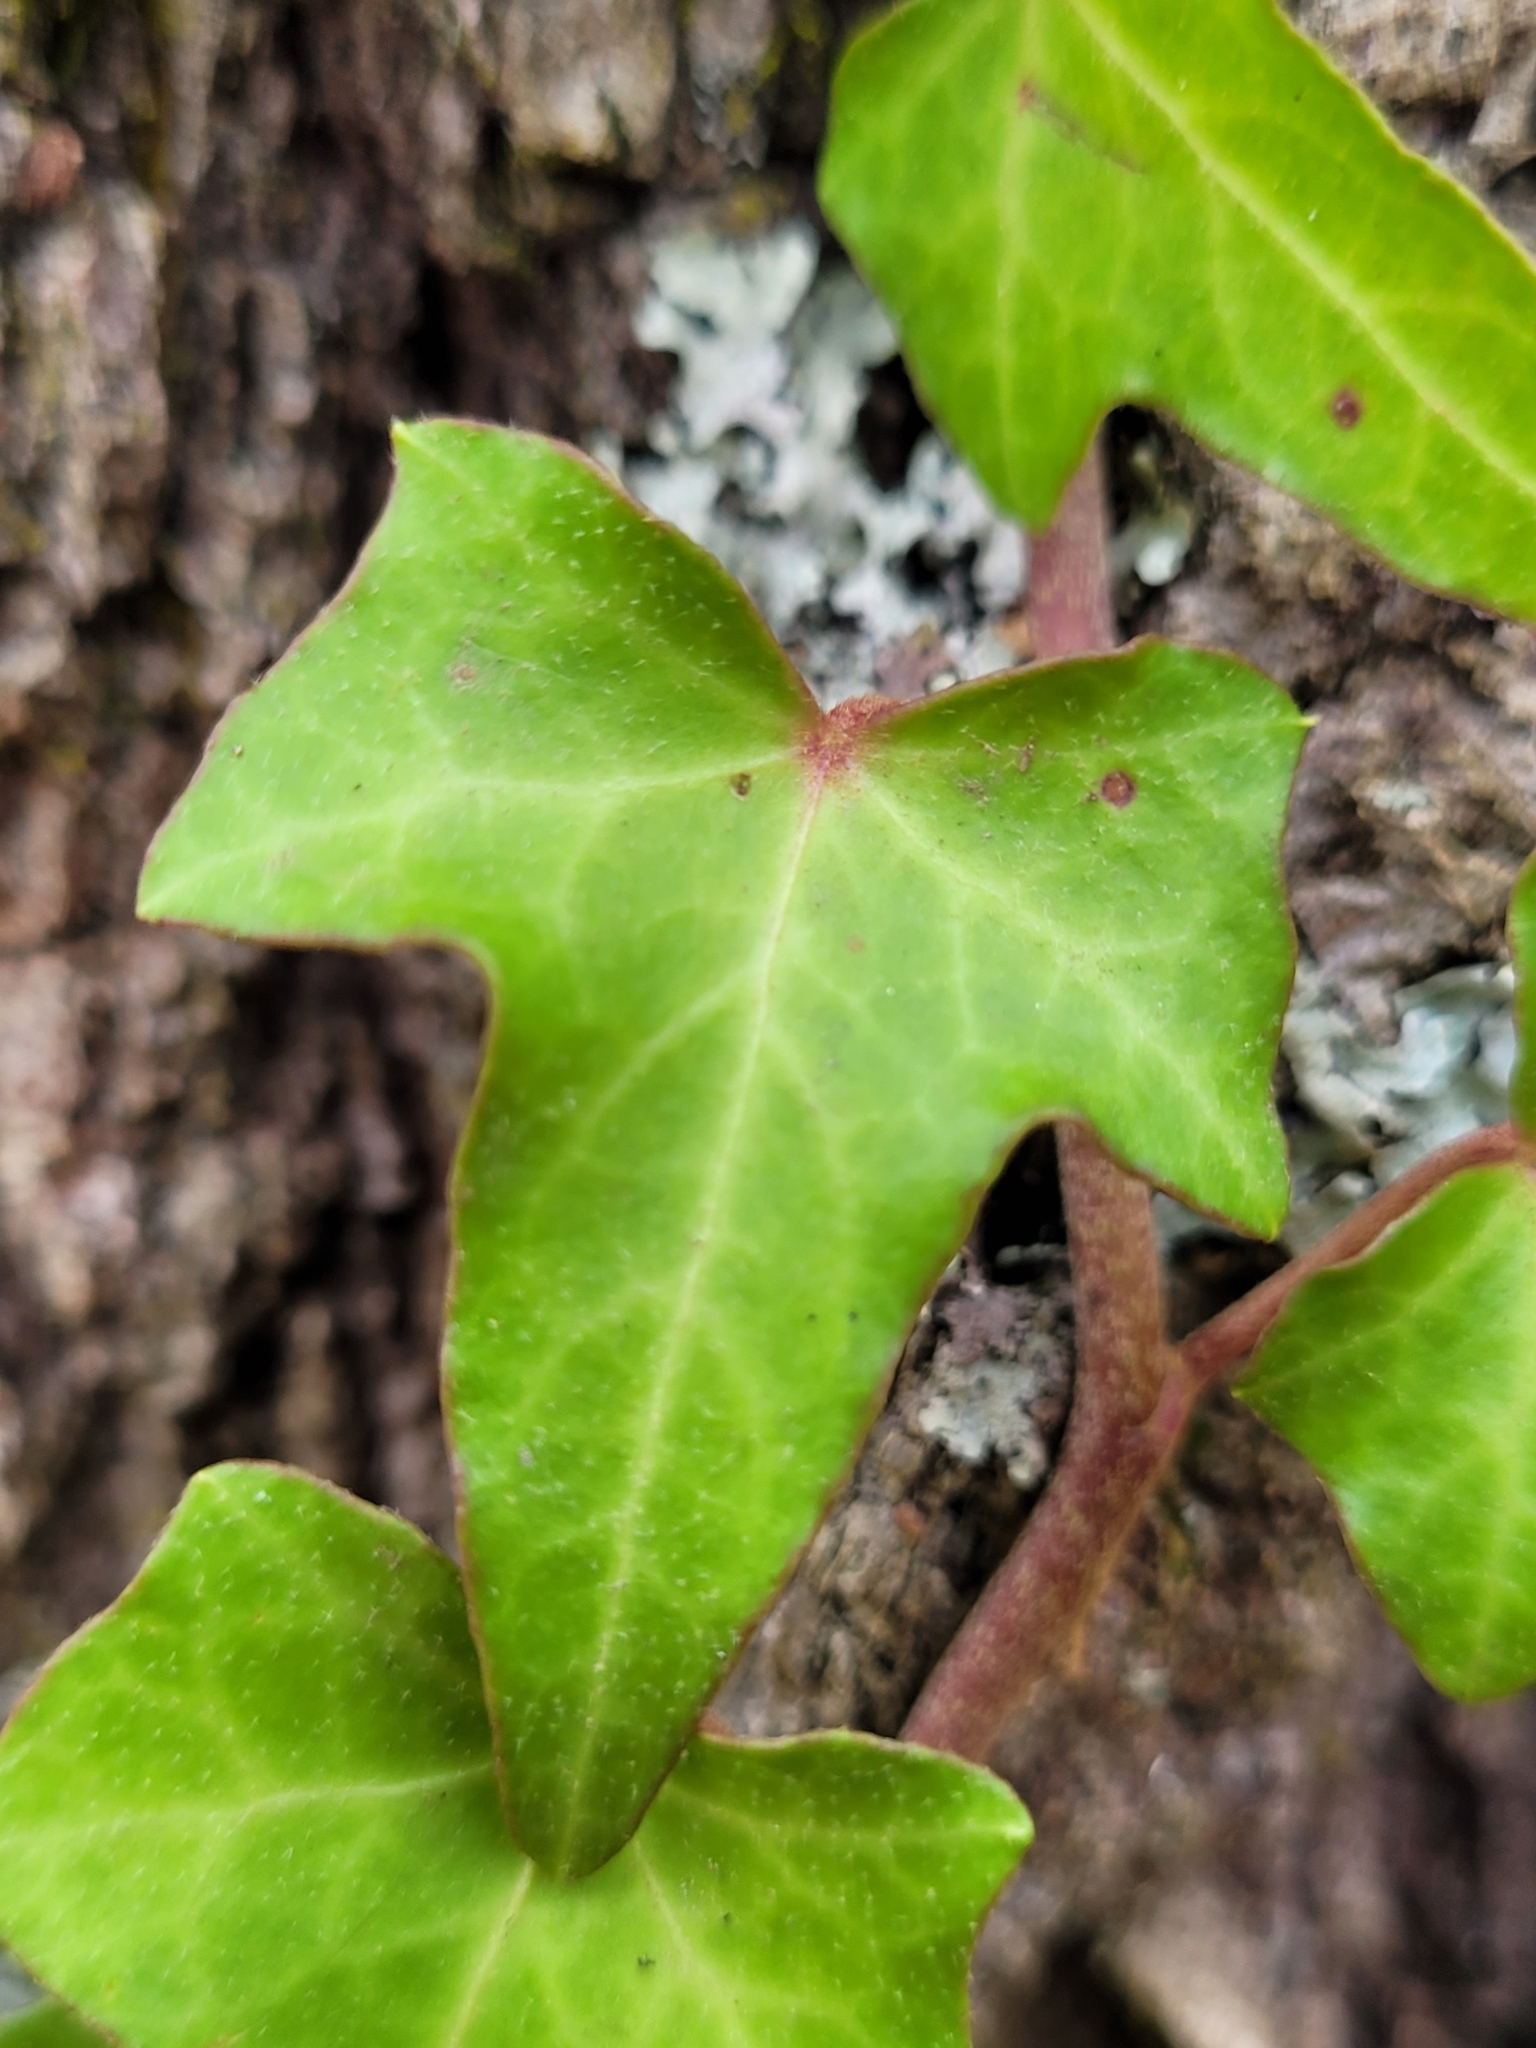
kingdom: Plantae
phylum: Tracheophyta
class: Magnoliopsida
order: Apiales
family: Araliaceae
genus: Hedera
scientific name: Hedera helix
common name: Ivy
